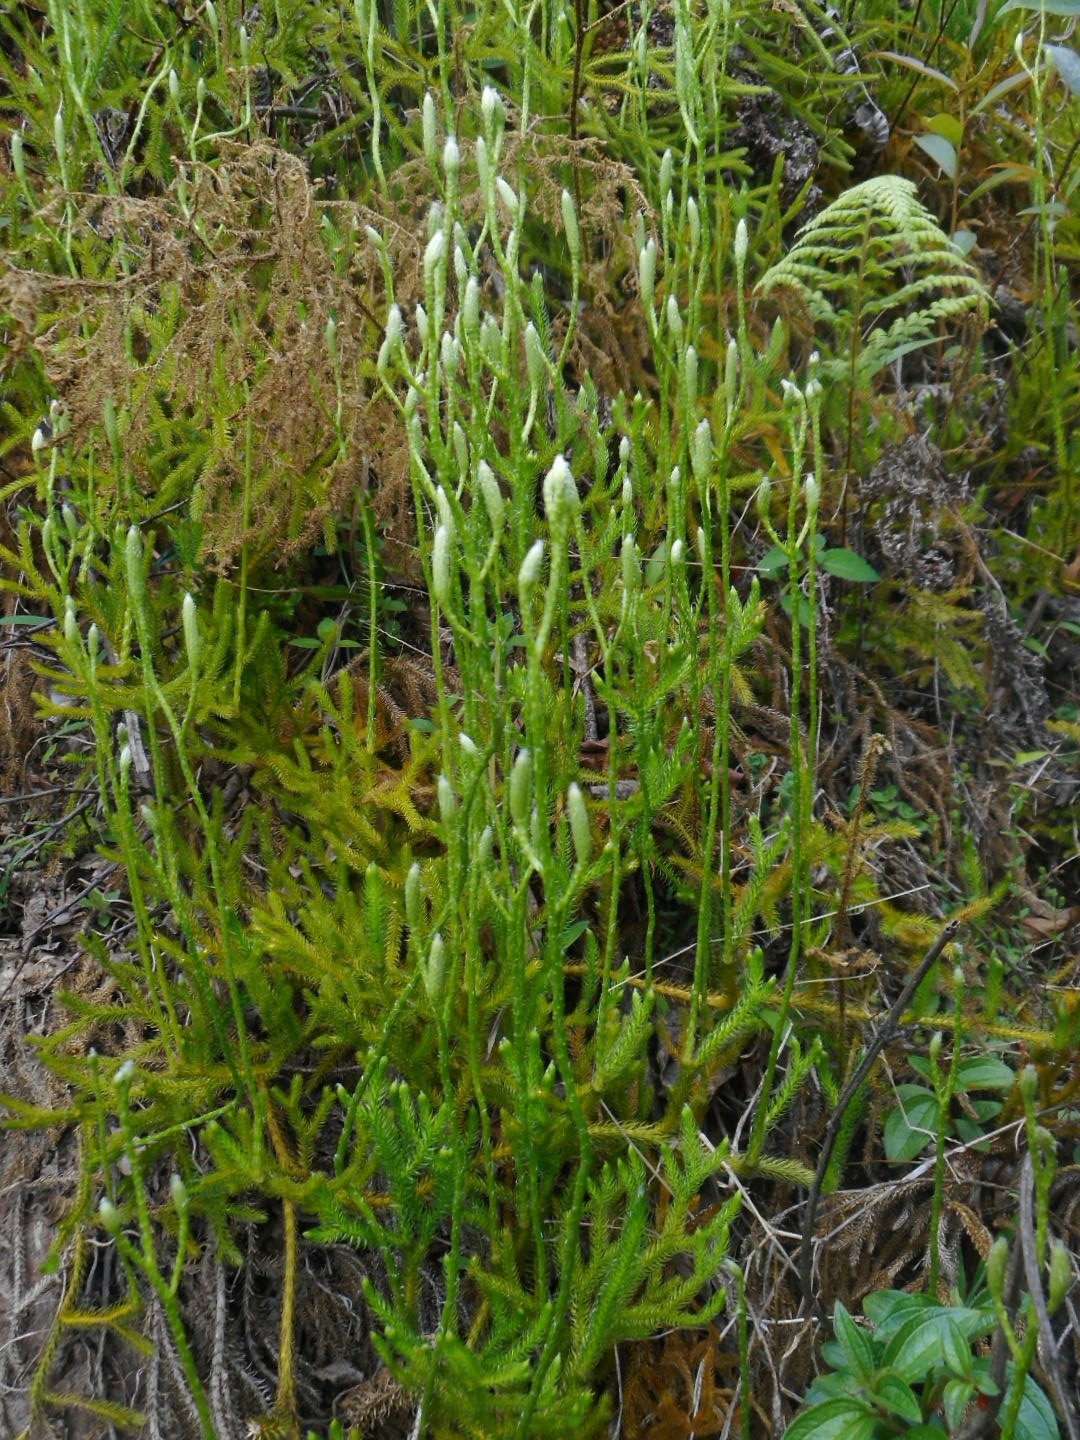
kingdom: Plantae
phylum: Tracheophyta
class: Lycopodiopsida
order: Lycopodiales
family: Lycopodiaceae
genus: Lycopodium
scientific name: Lycopodium clavatum
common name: Stag's-horn clubmoss
